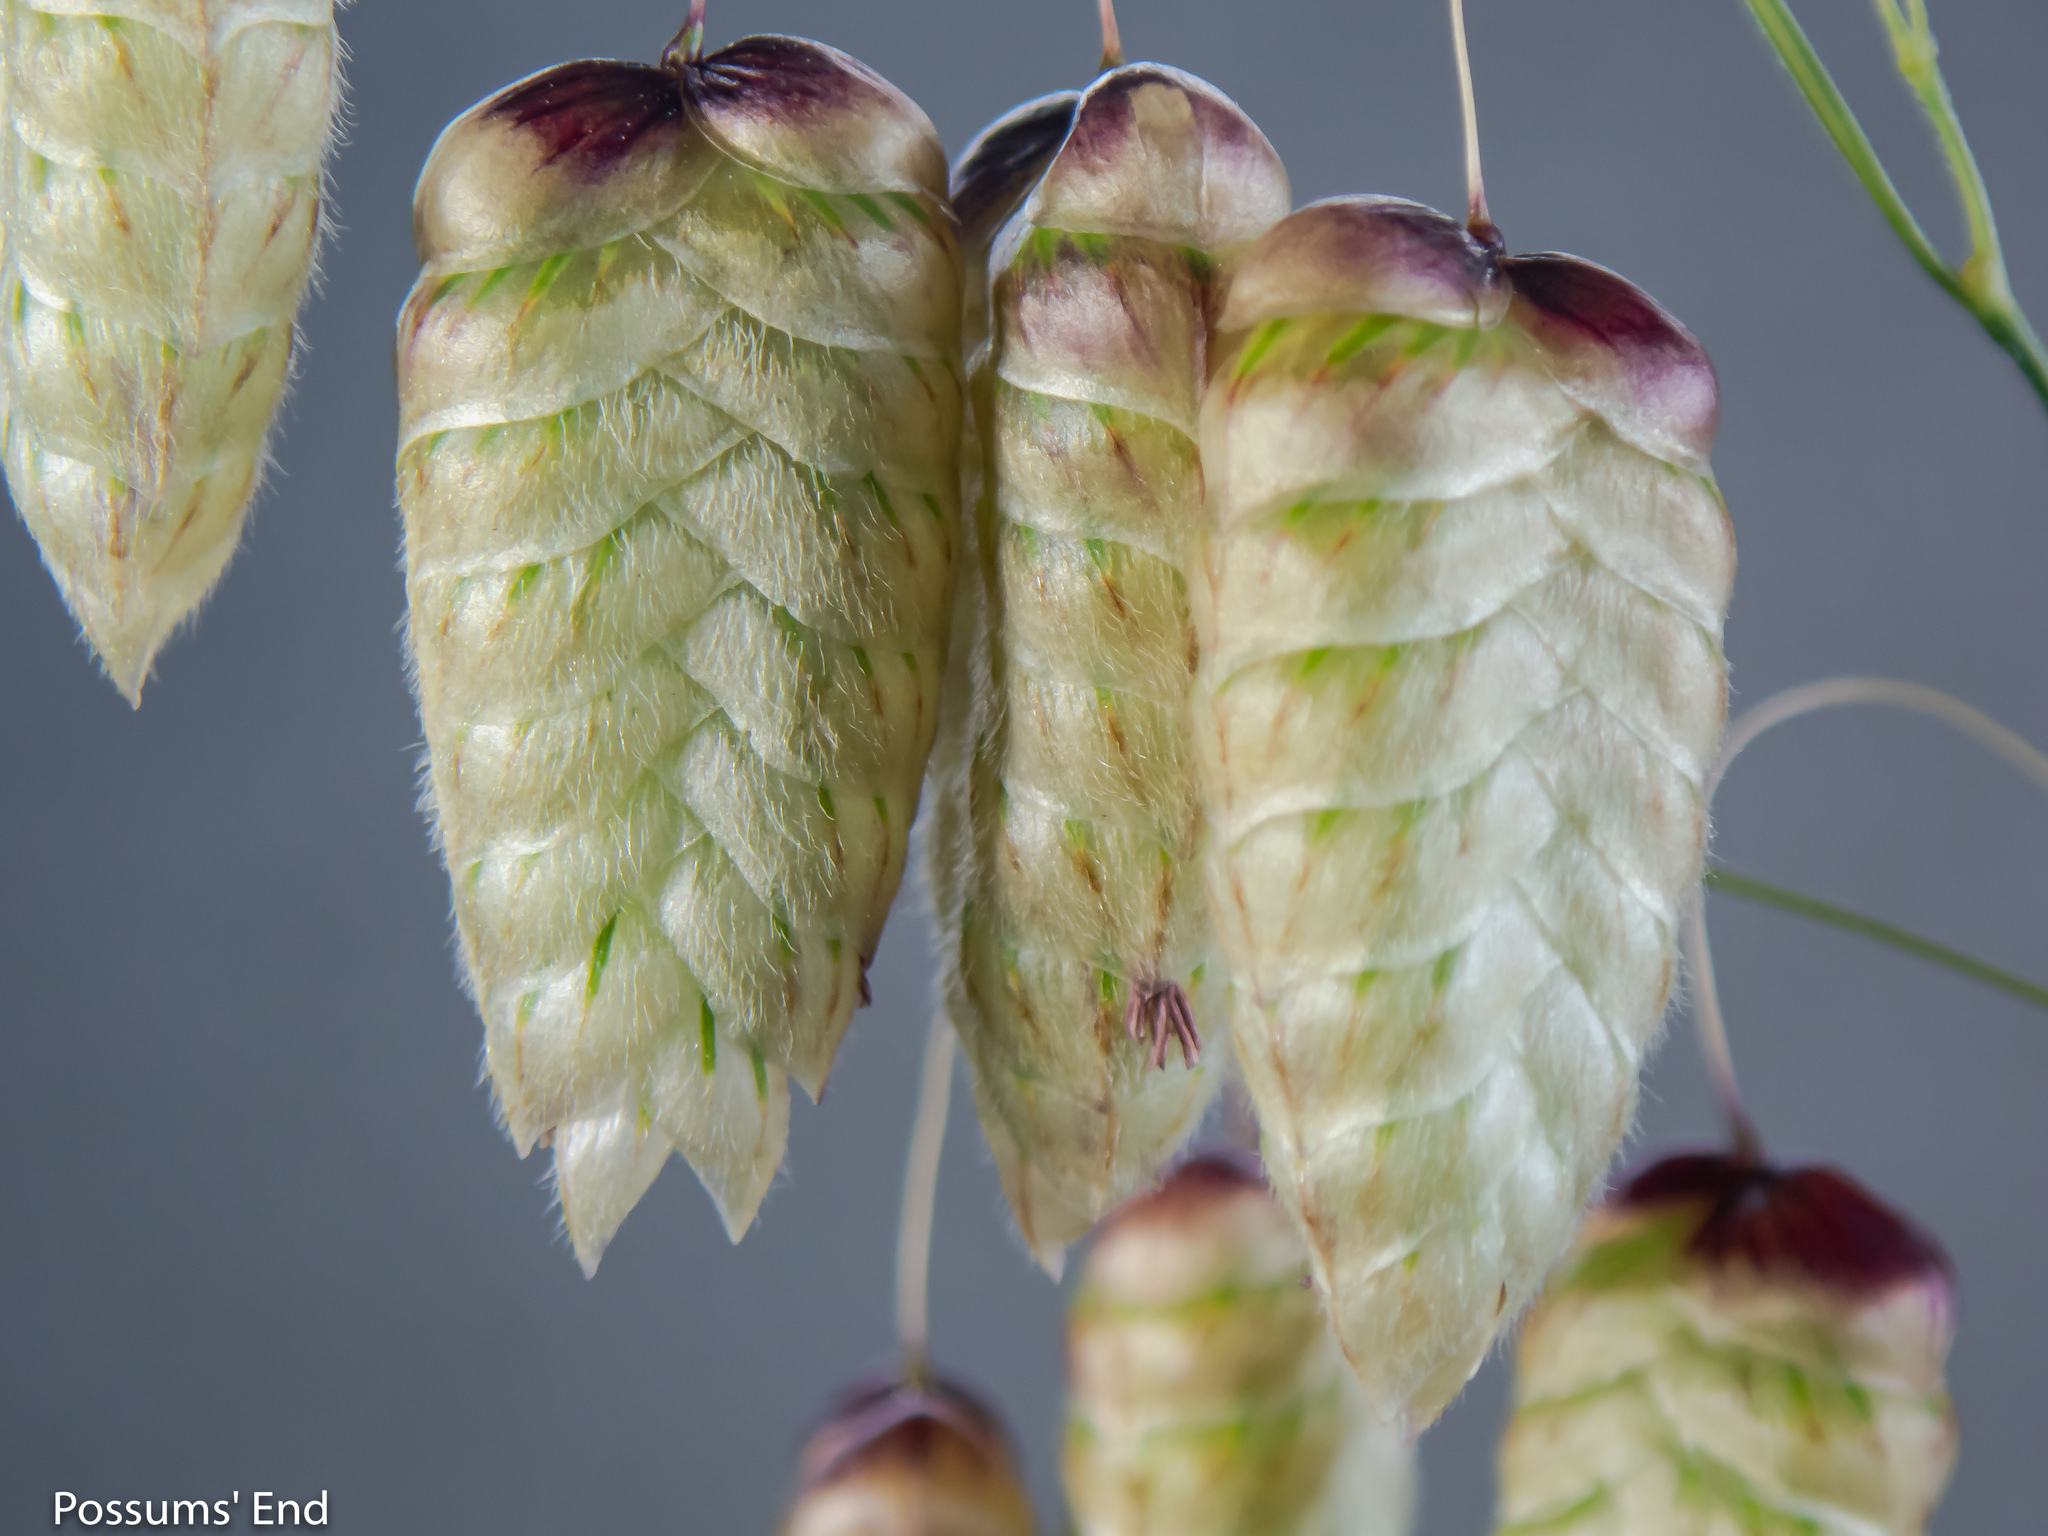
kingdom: Plantae
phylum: Tracheophyta
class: Liliopsida
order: Poales
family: Poaceae
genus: Briza
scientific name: Briza maxima
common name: Big quakinggrass
